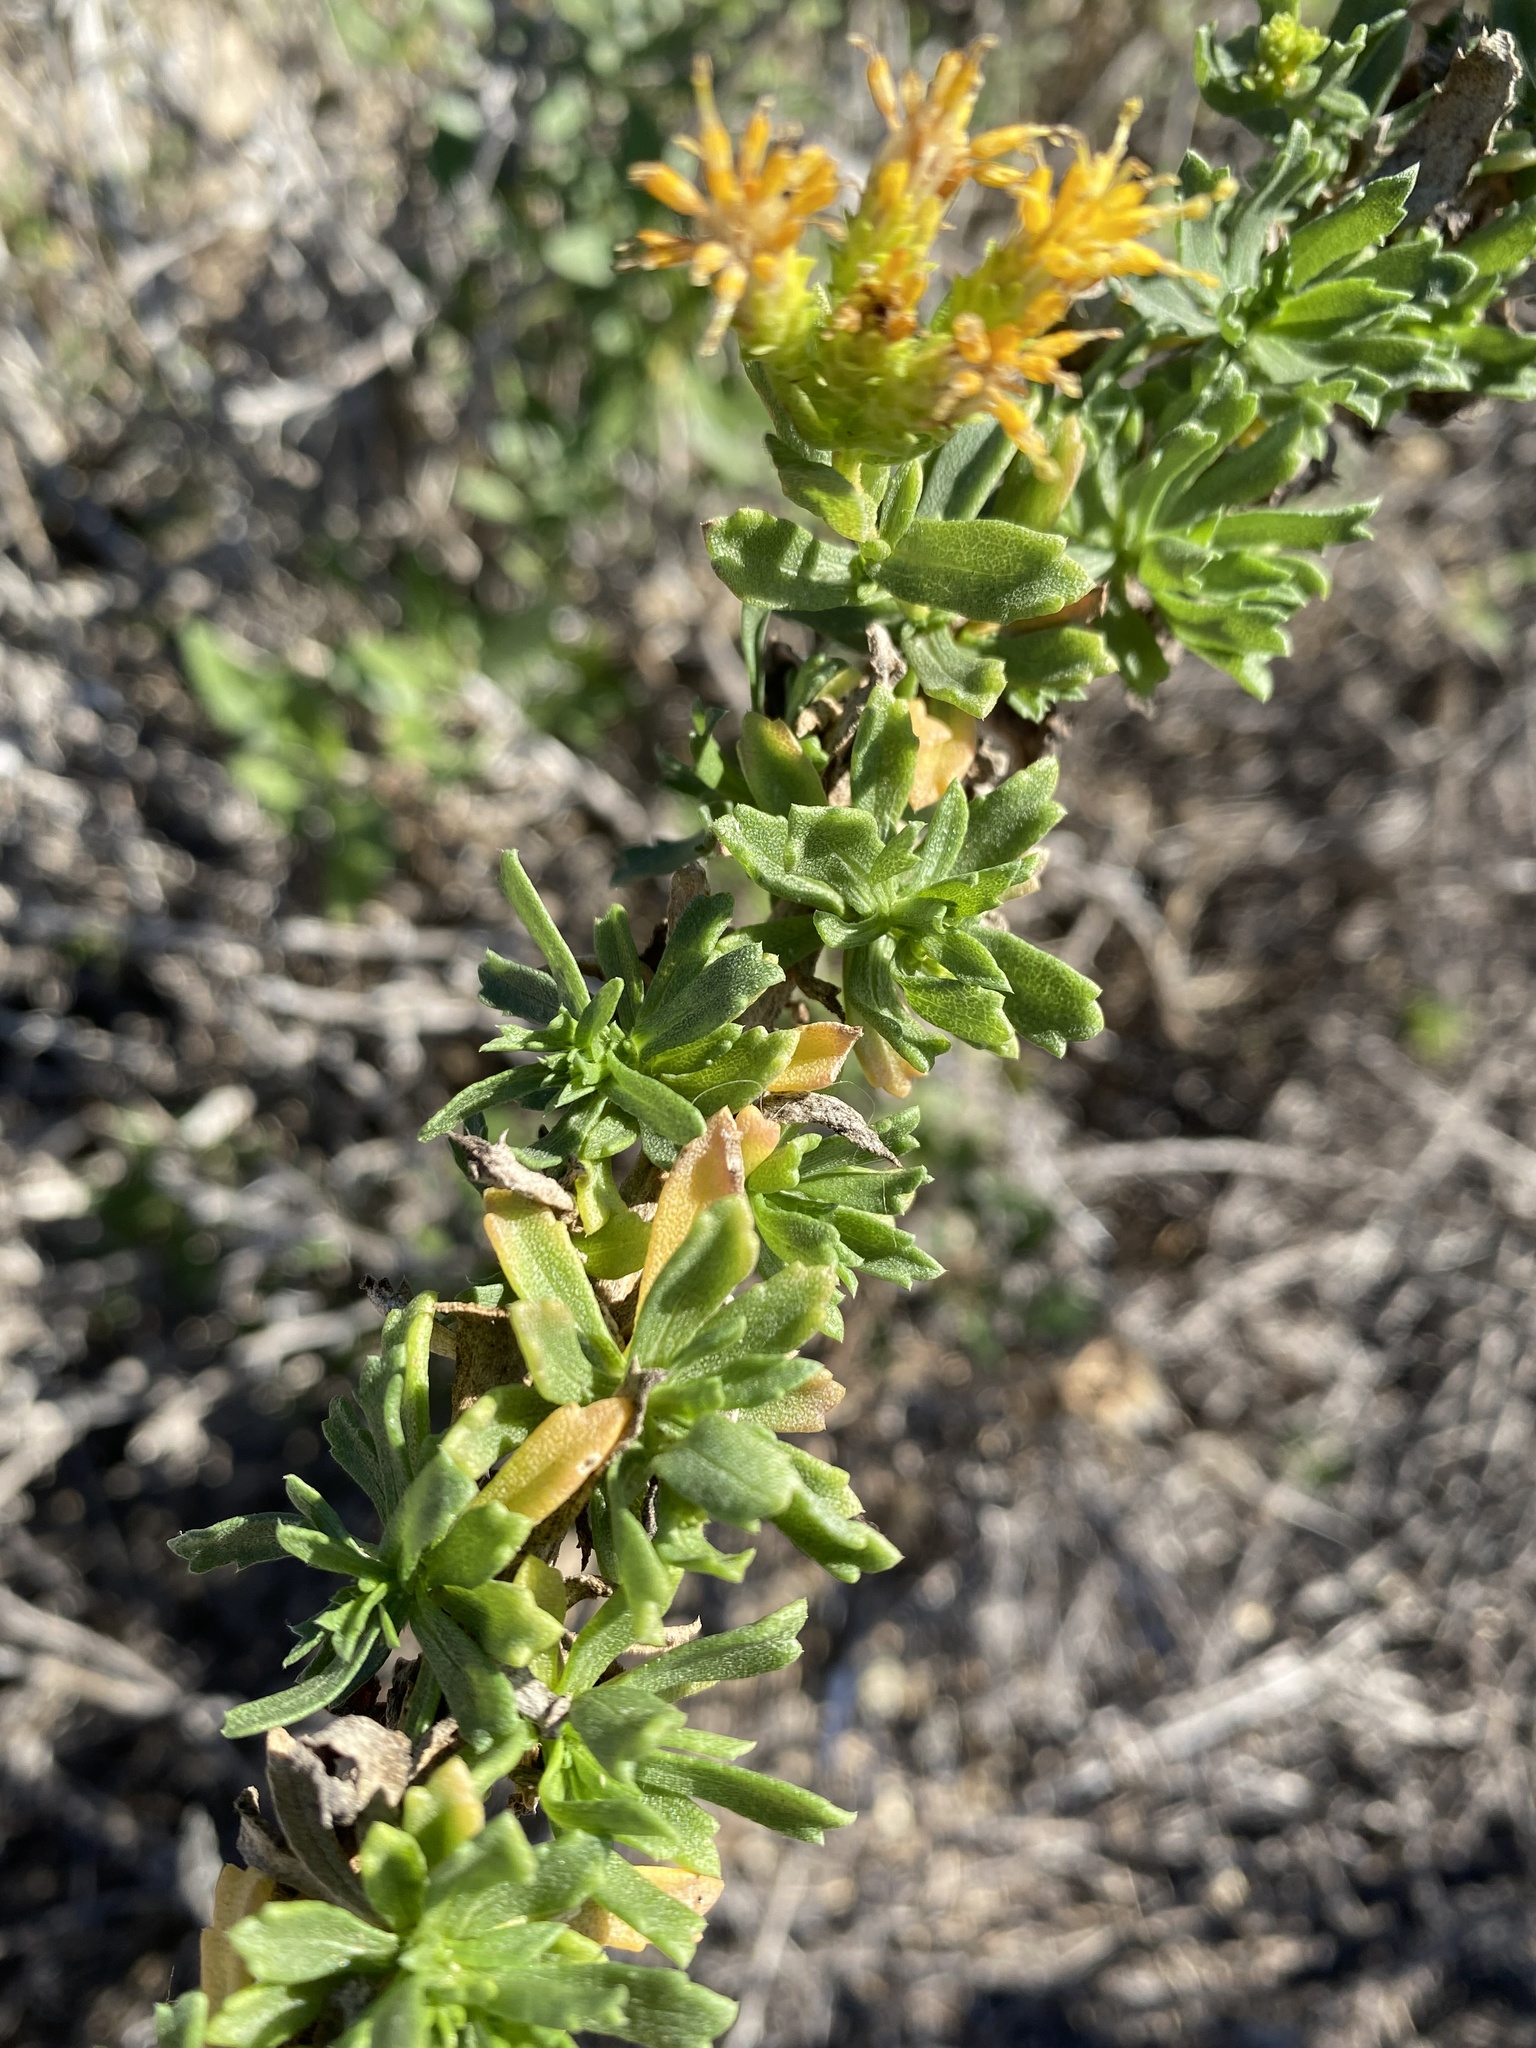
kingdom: Plantae
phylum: Tracheophyta
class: Magnoliopsida
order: Asterales
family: Asteraceae
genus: Isocoma
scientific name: Isocoma menziesii
